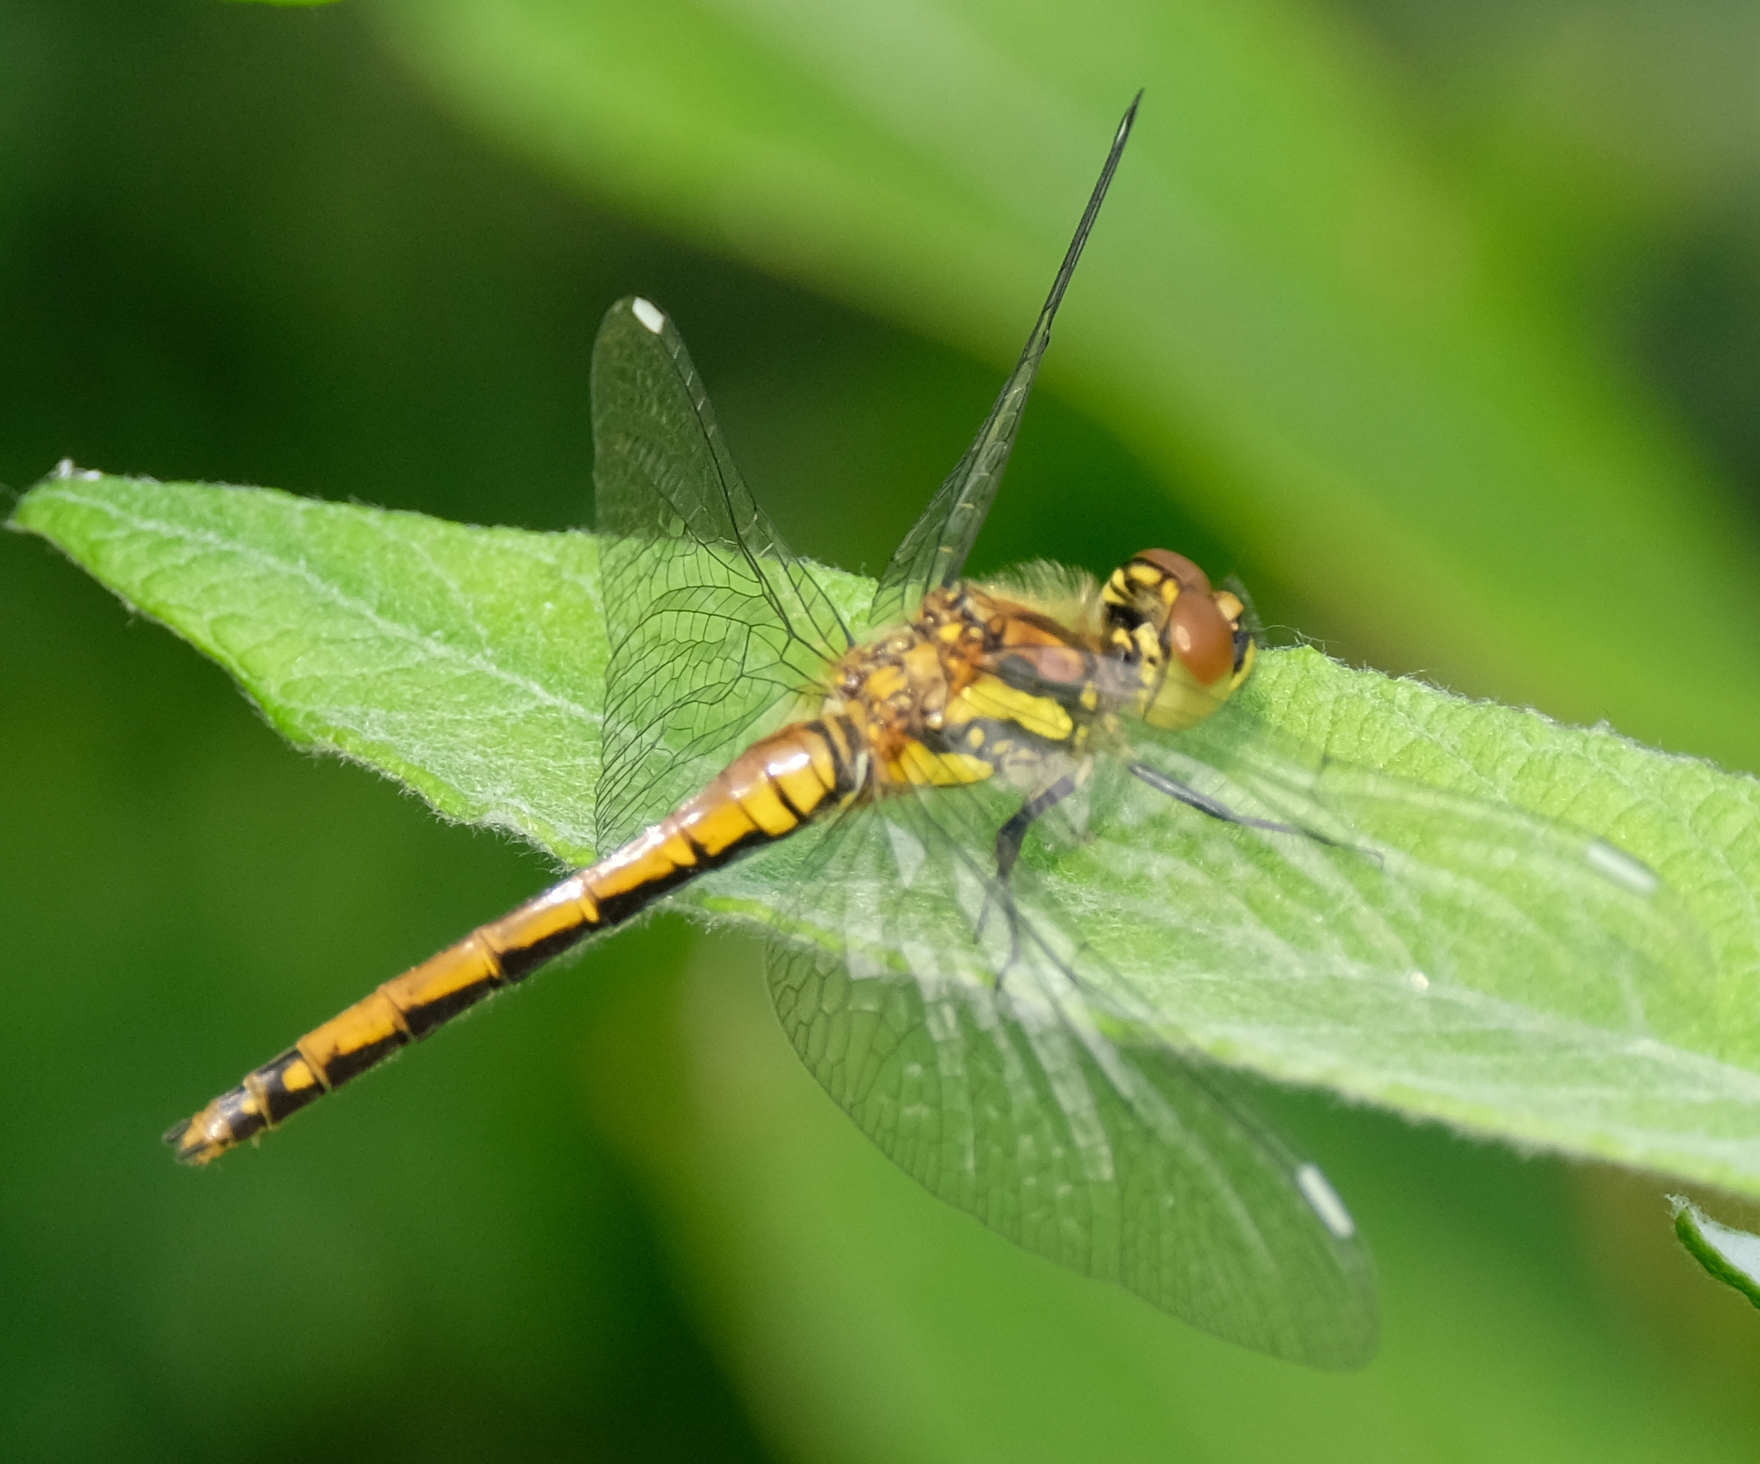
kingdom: Animalia
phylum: Arthropoda
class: Insecta
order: Odonata
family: Libellulidae
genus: Sympetrum
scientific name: Sympetrum danae
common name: Black darter
